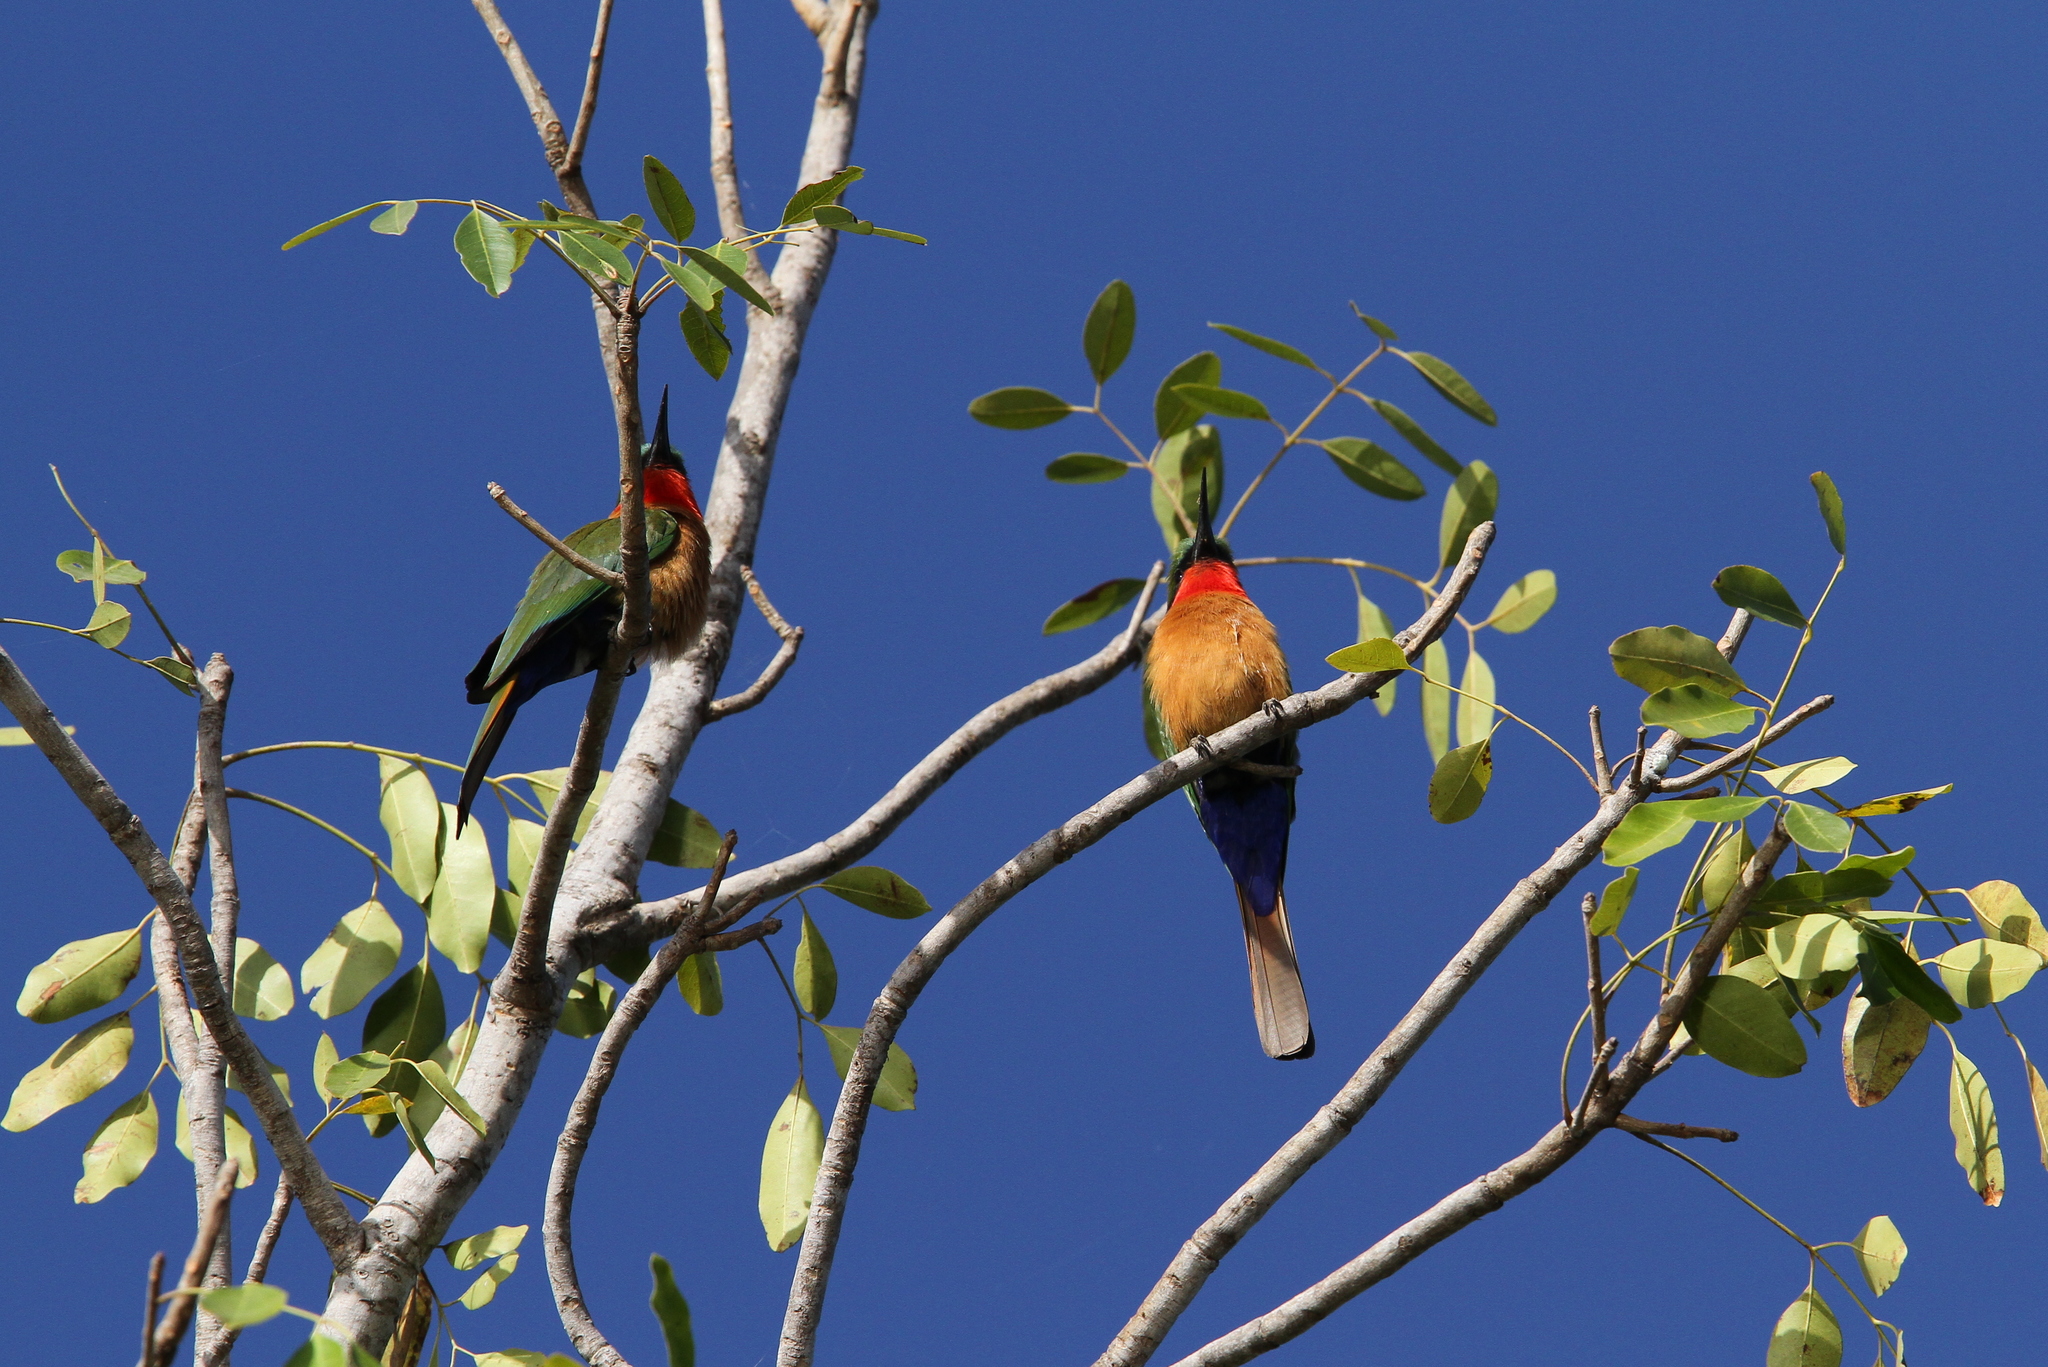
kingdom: Animalia
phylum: Chordata
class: Aves
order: Coraciiformes
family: Meropidae
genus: Merops
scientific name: Merops bulocki
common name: Red-throated bee-eater
